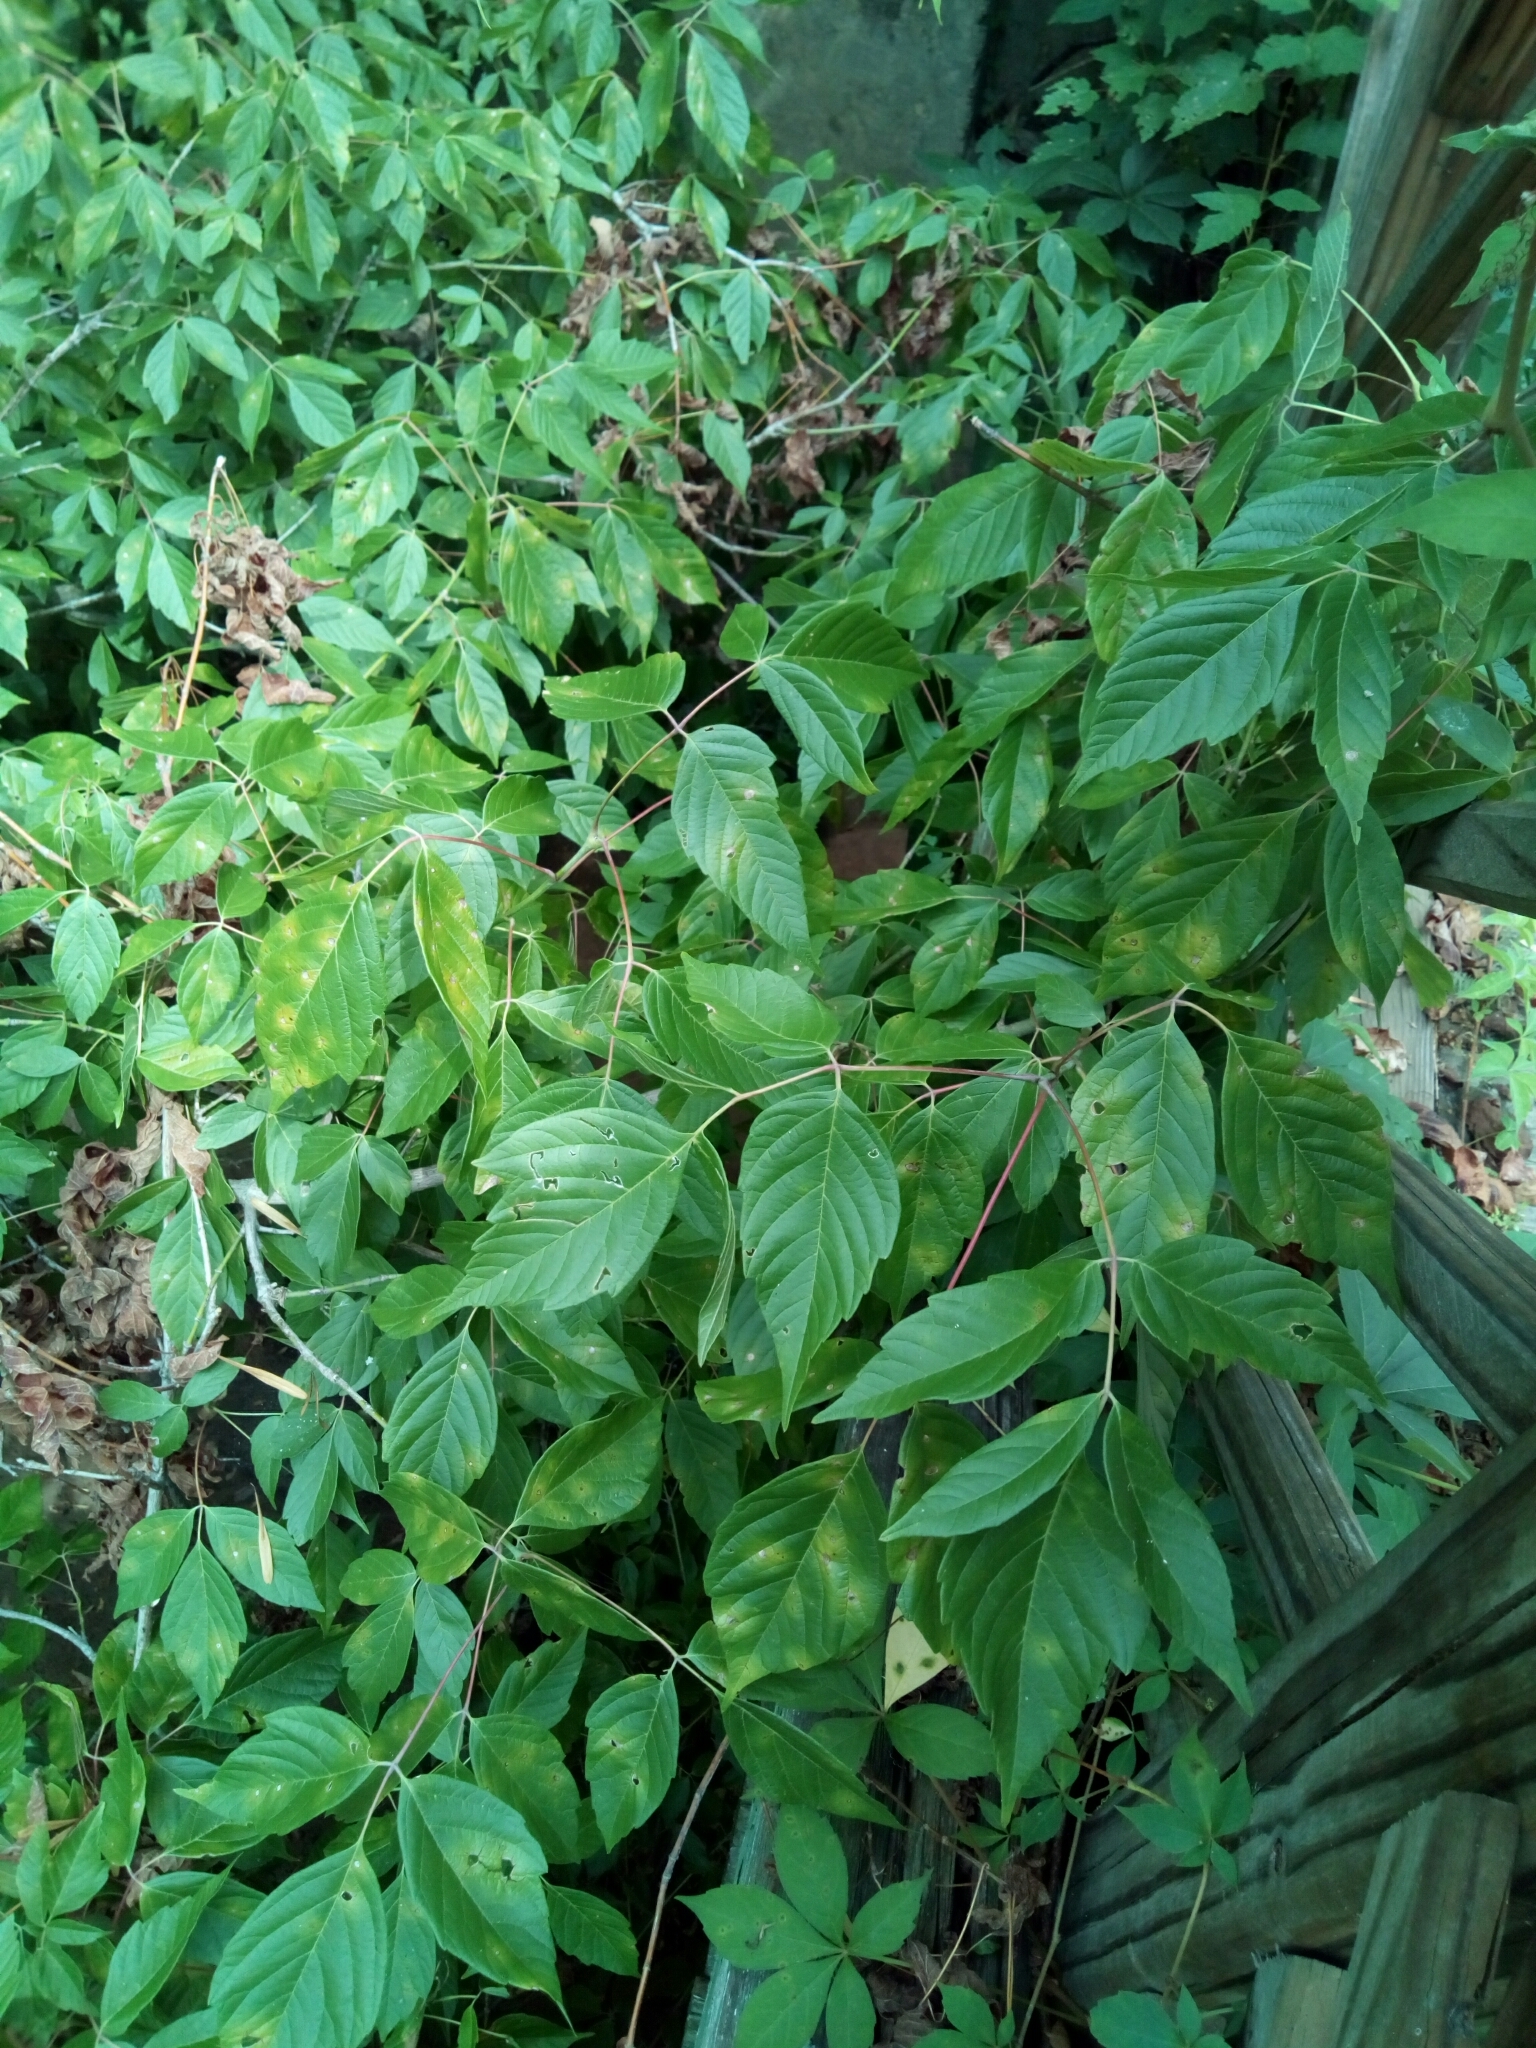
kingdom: Plantae
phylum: Tracheophyta
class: Magnoliopsida
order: Sapindales
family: Sapindaceae
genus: Acer
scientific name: Acer negundo
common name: Ashleaf maple
